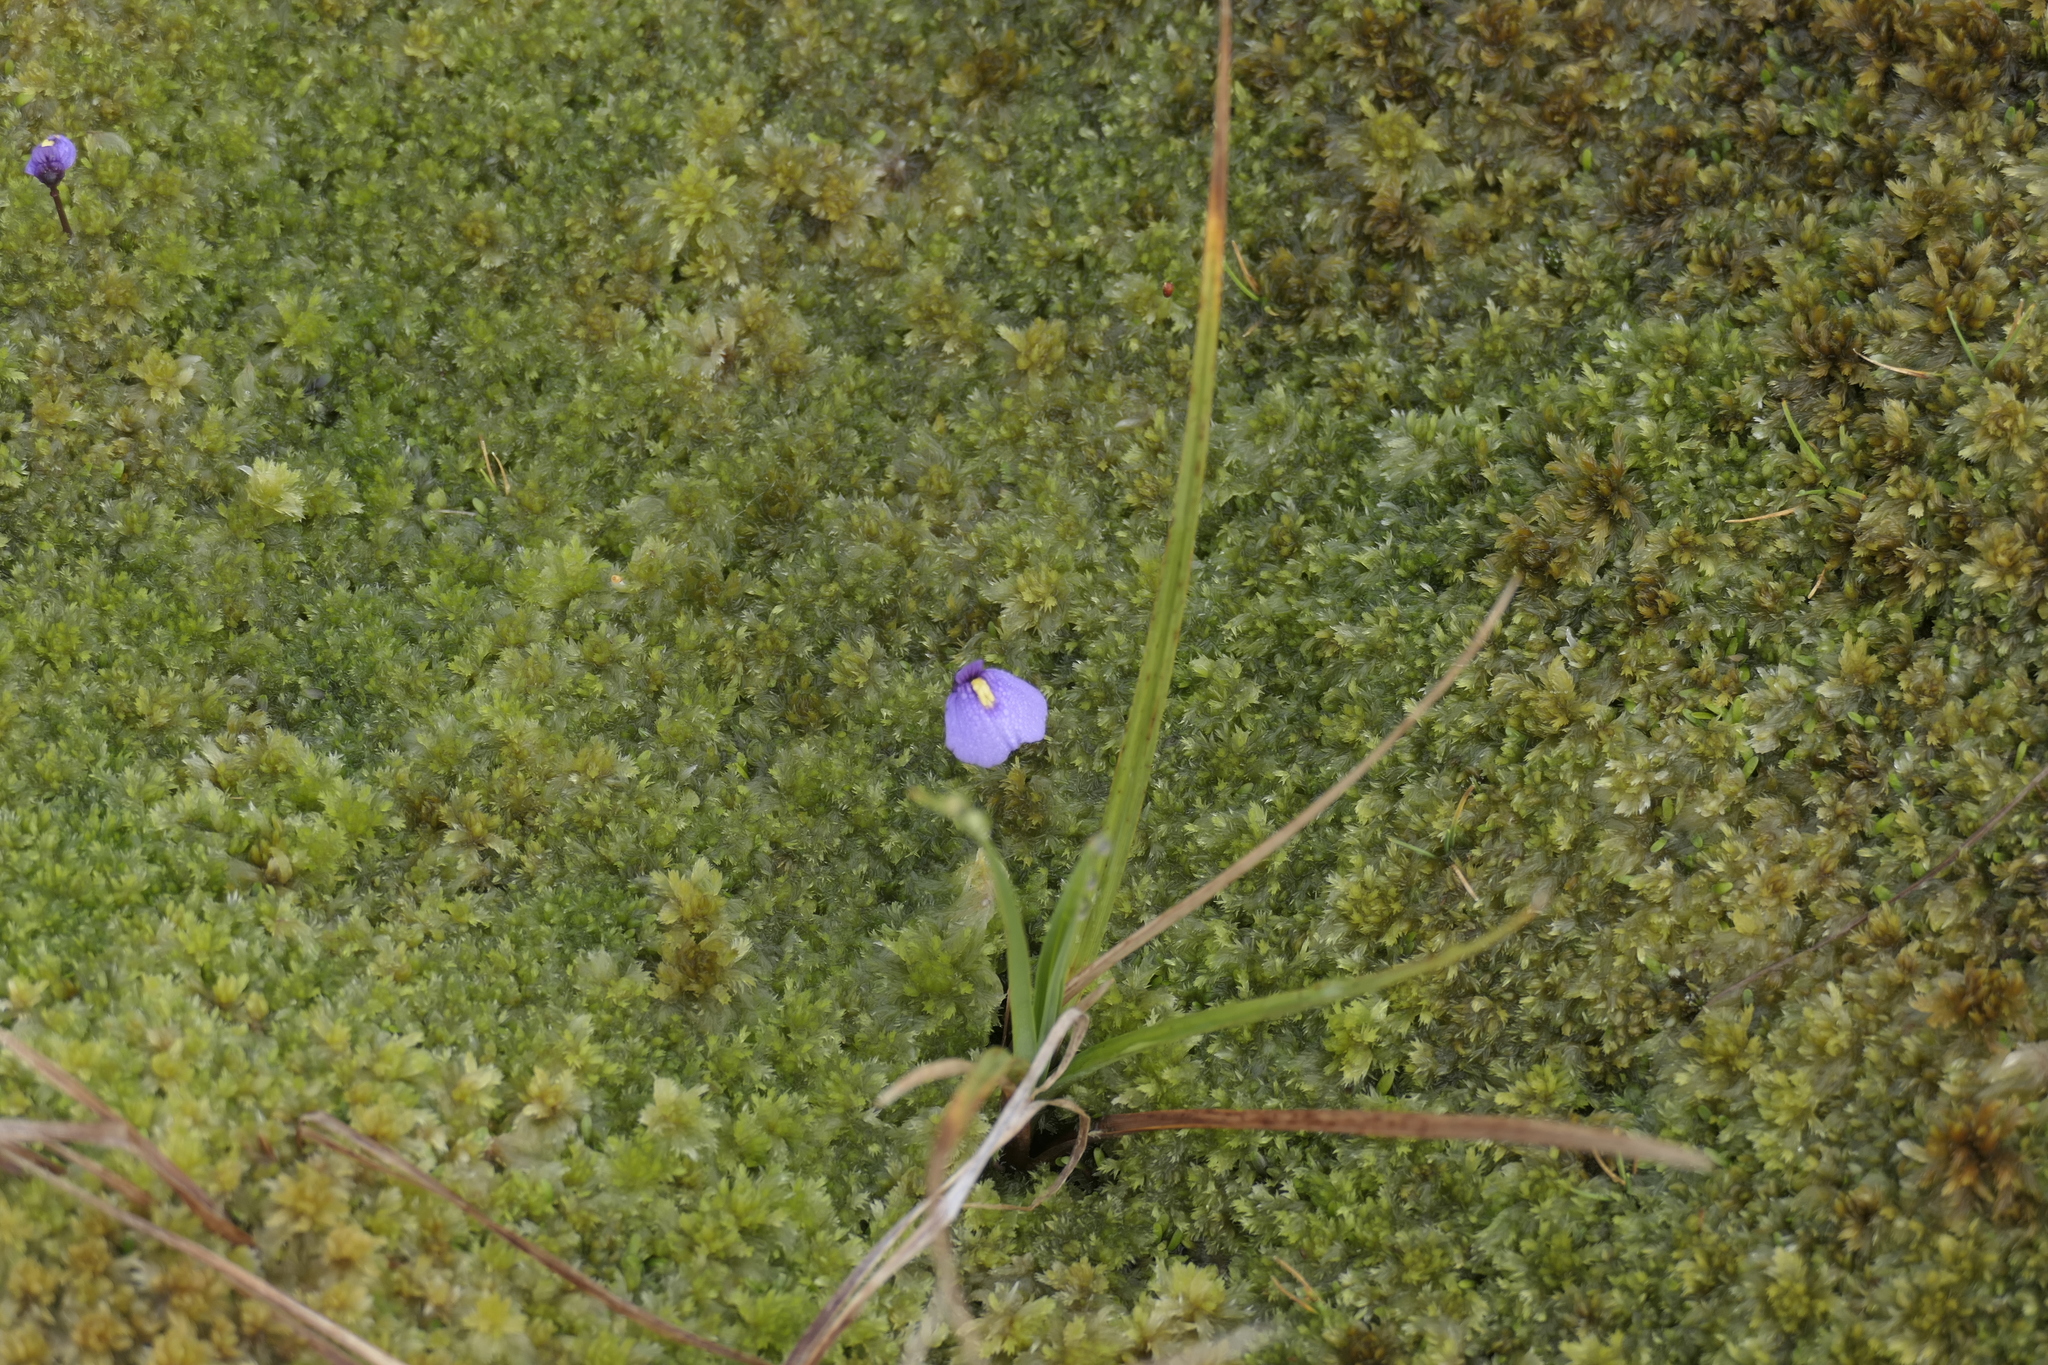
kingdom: Plantae
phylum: Tracheophyta
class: Magnoliopsida
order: Lamiales
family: Lentibulariaceae
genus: Utricularia
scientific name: Utricularia dichotoma
